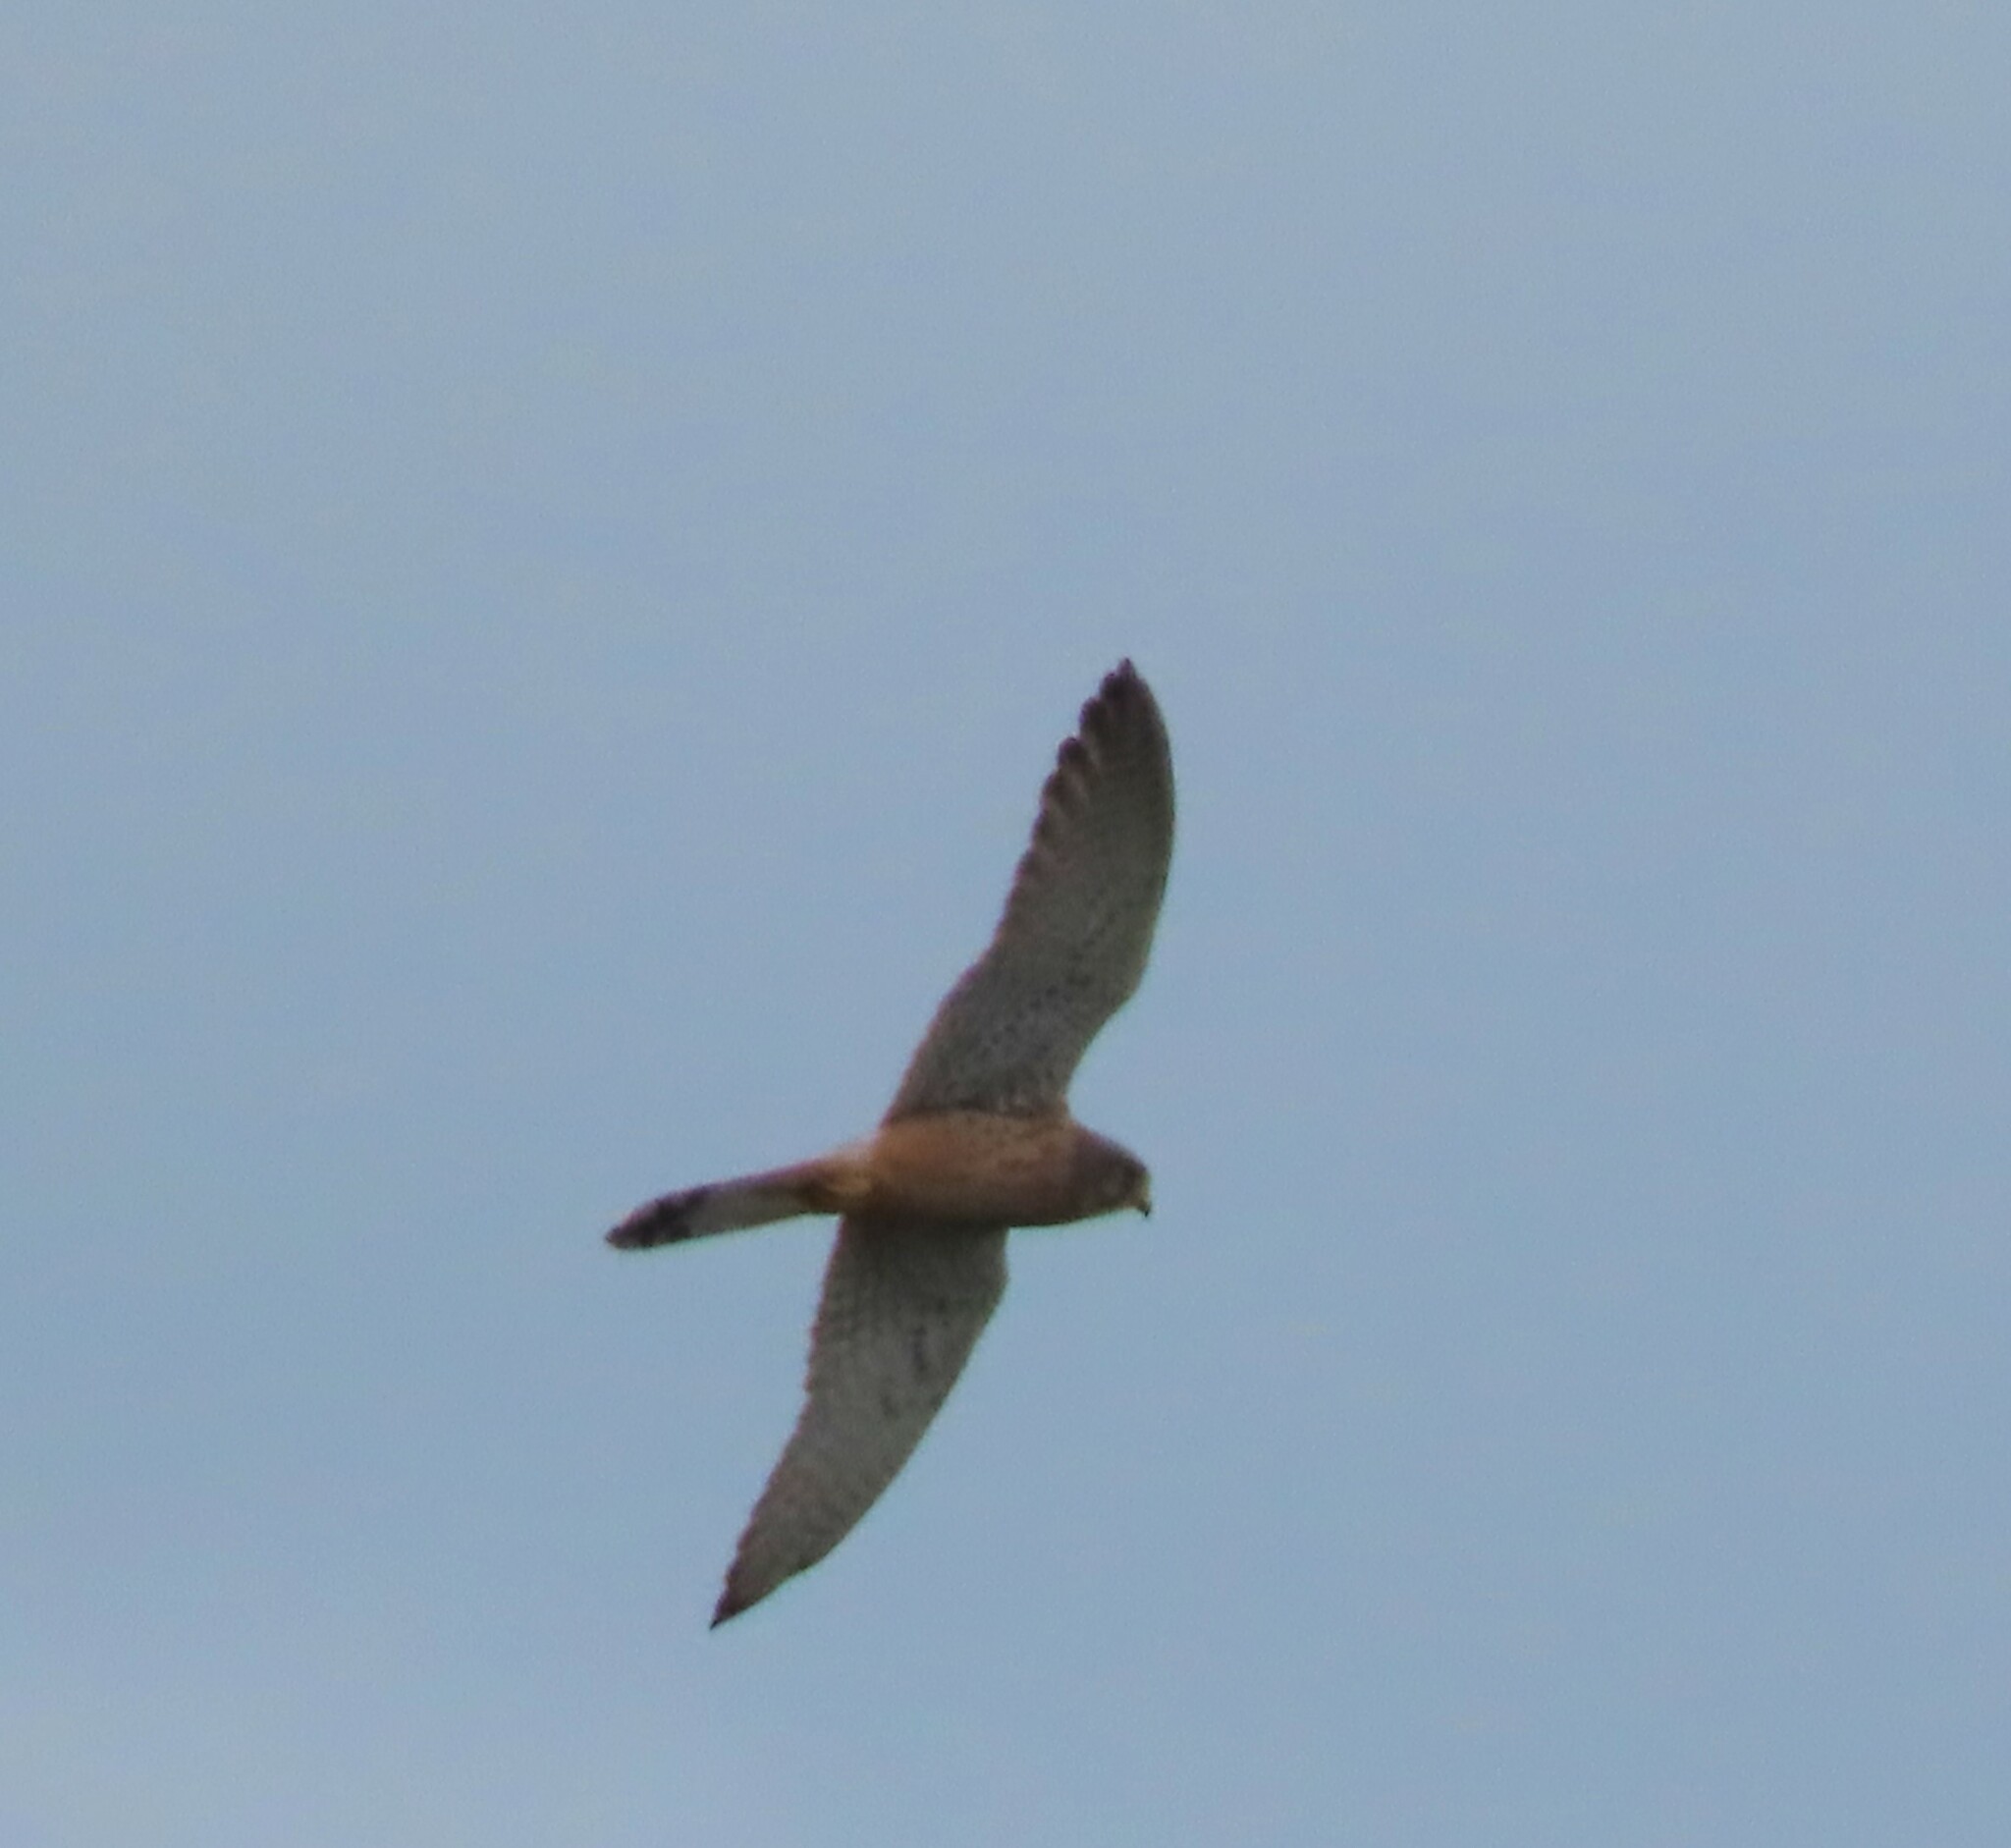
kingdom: Animalia
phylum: Chordata
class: Aves
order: Falconiformes
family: Falconidae
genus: Falco
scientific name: Falco naumanni
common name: Lesser kestrel
